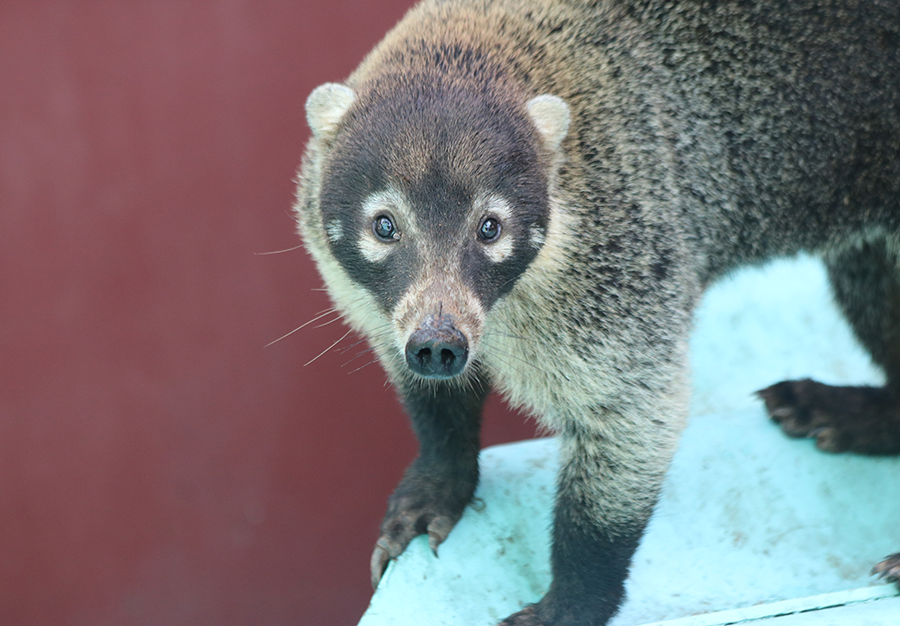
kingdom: Animalia
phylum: Chordata
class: Mammalia
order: Carnivora
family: Procyonidae
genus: Nasua
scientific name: Nasua narica
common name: White-nosed coati
